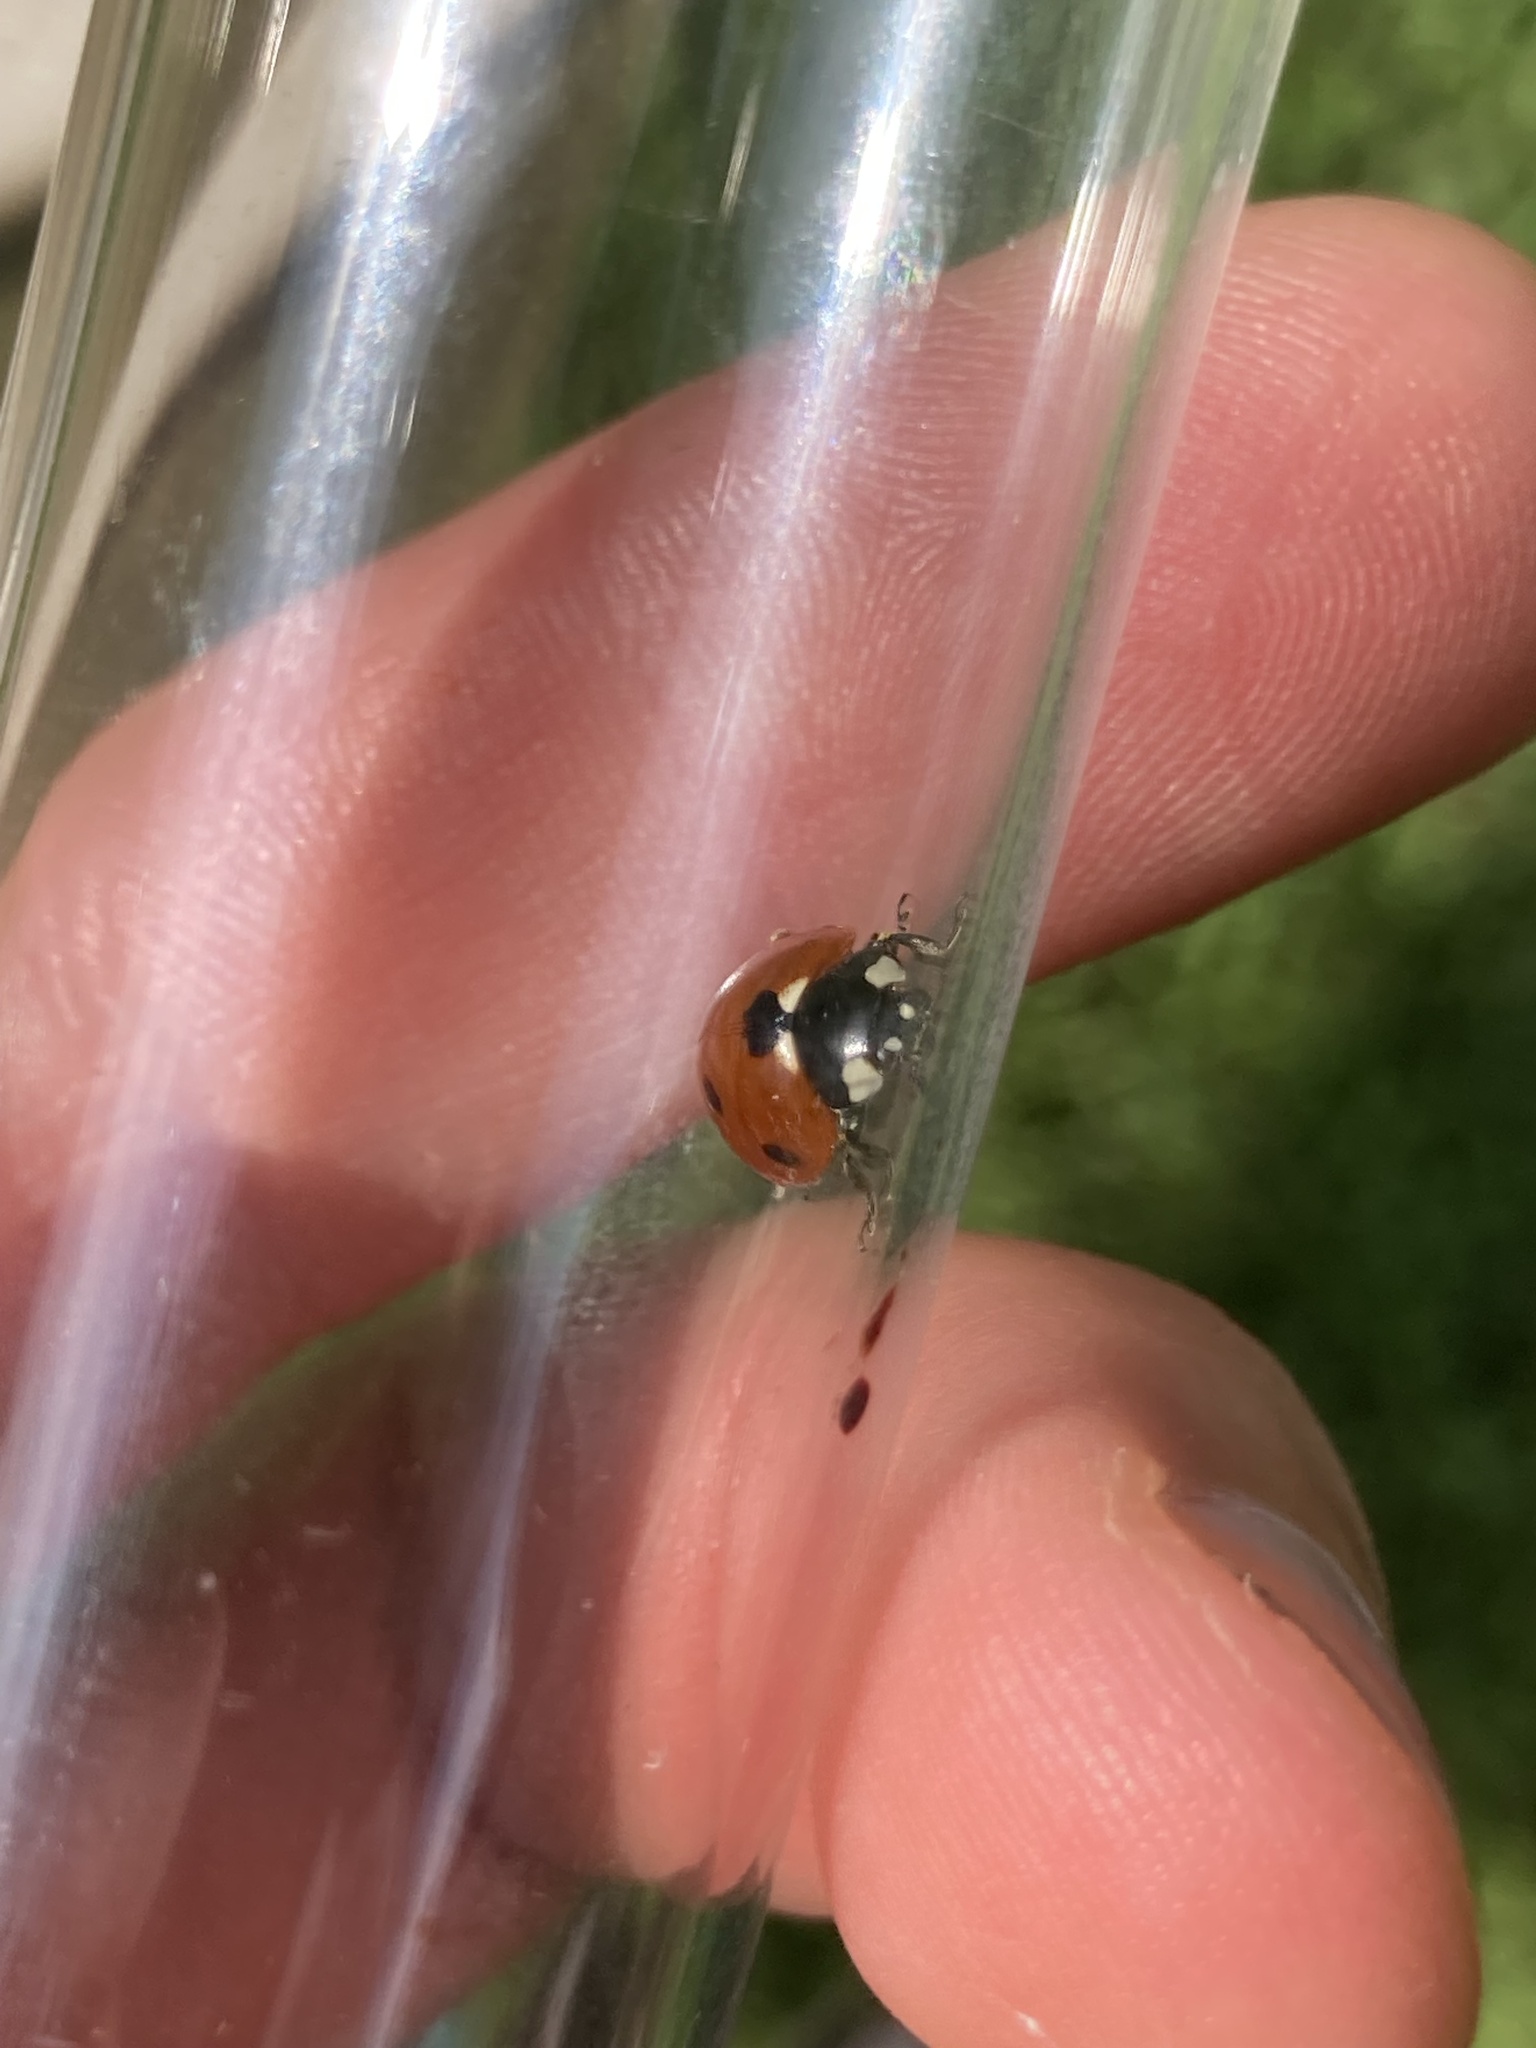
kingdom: Animalia
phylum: Arthropoda
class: Insecta
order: Coleoptera
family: Coccinellidae
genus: Coccinella
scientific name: Coccinella septempunctata
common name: Sevenspotted lady beetle
